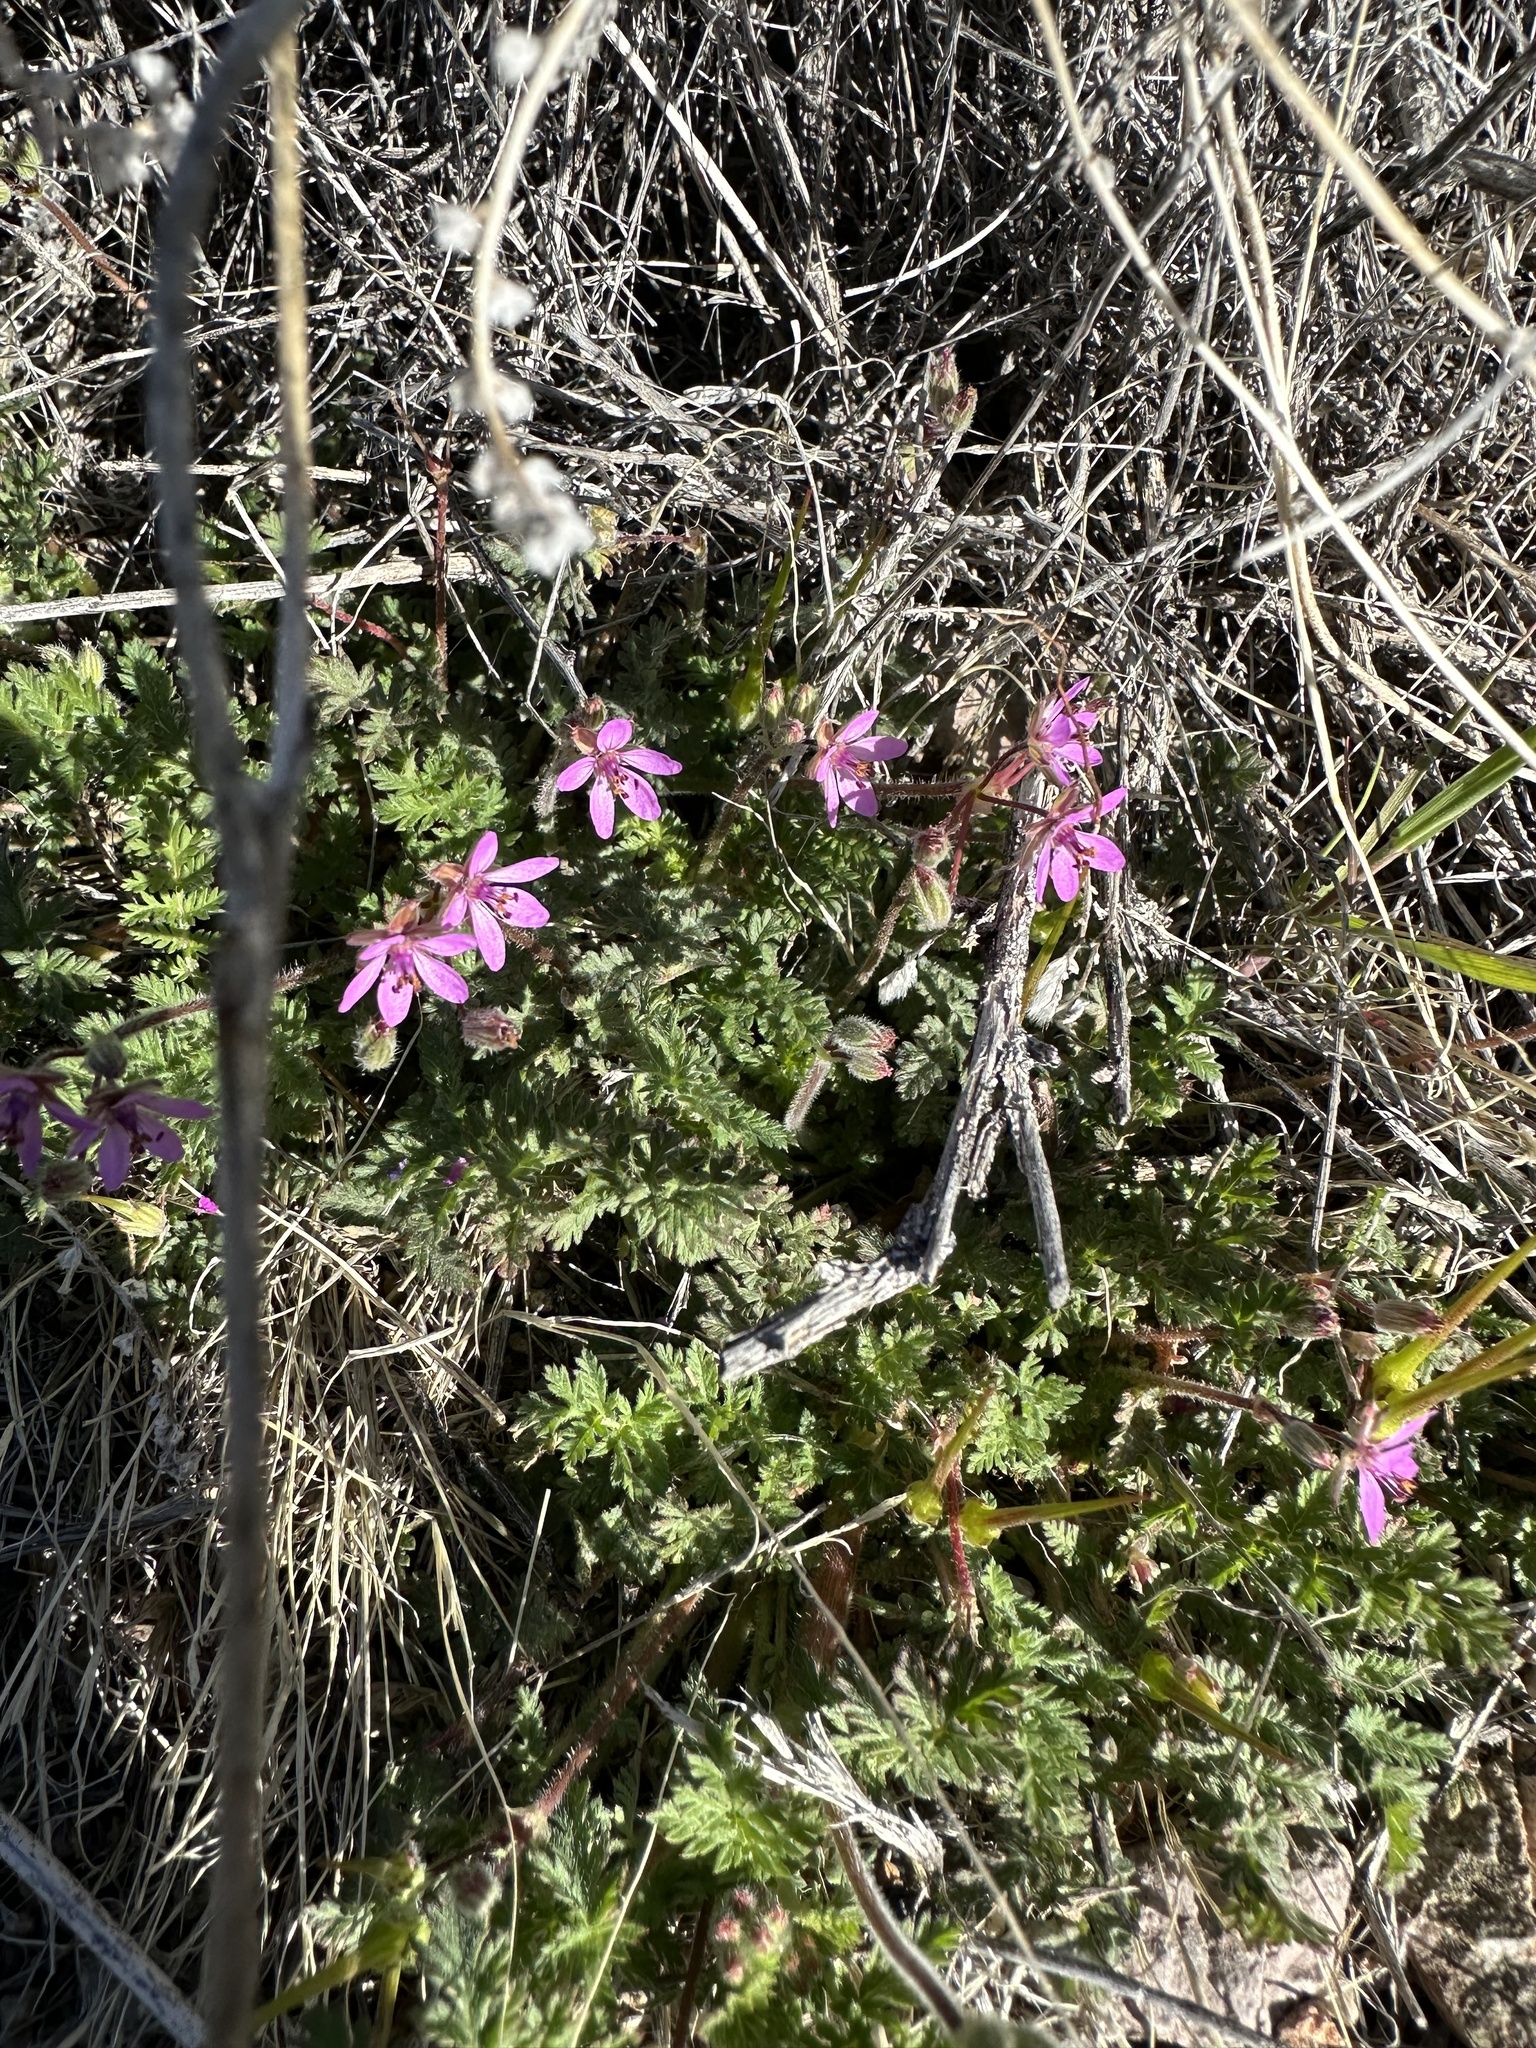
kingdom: Plantae
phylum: Tracheophyta
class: Magnoliopsida
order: Geraniales
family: Geraniaceae
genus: Erodium
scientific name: Erodium cicutarium
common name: Common stork's-bill
